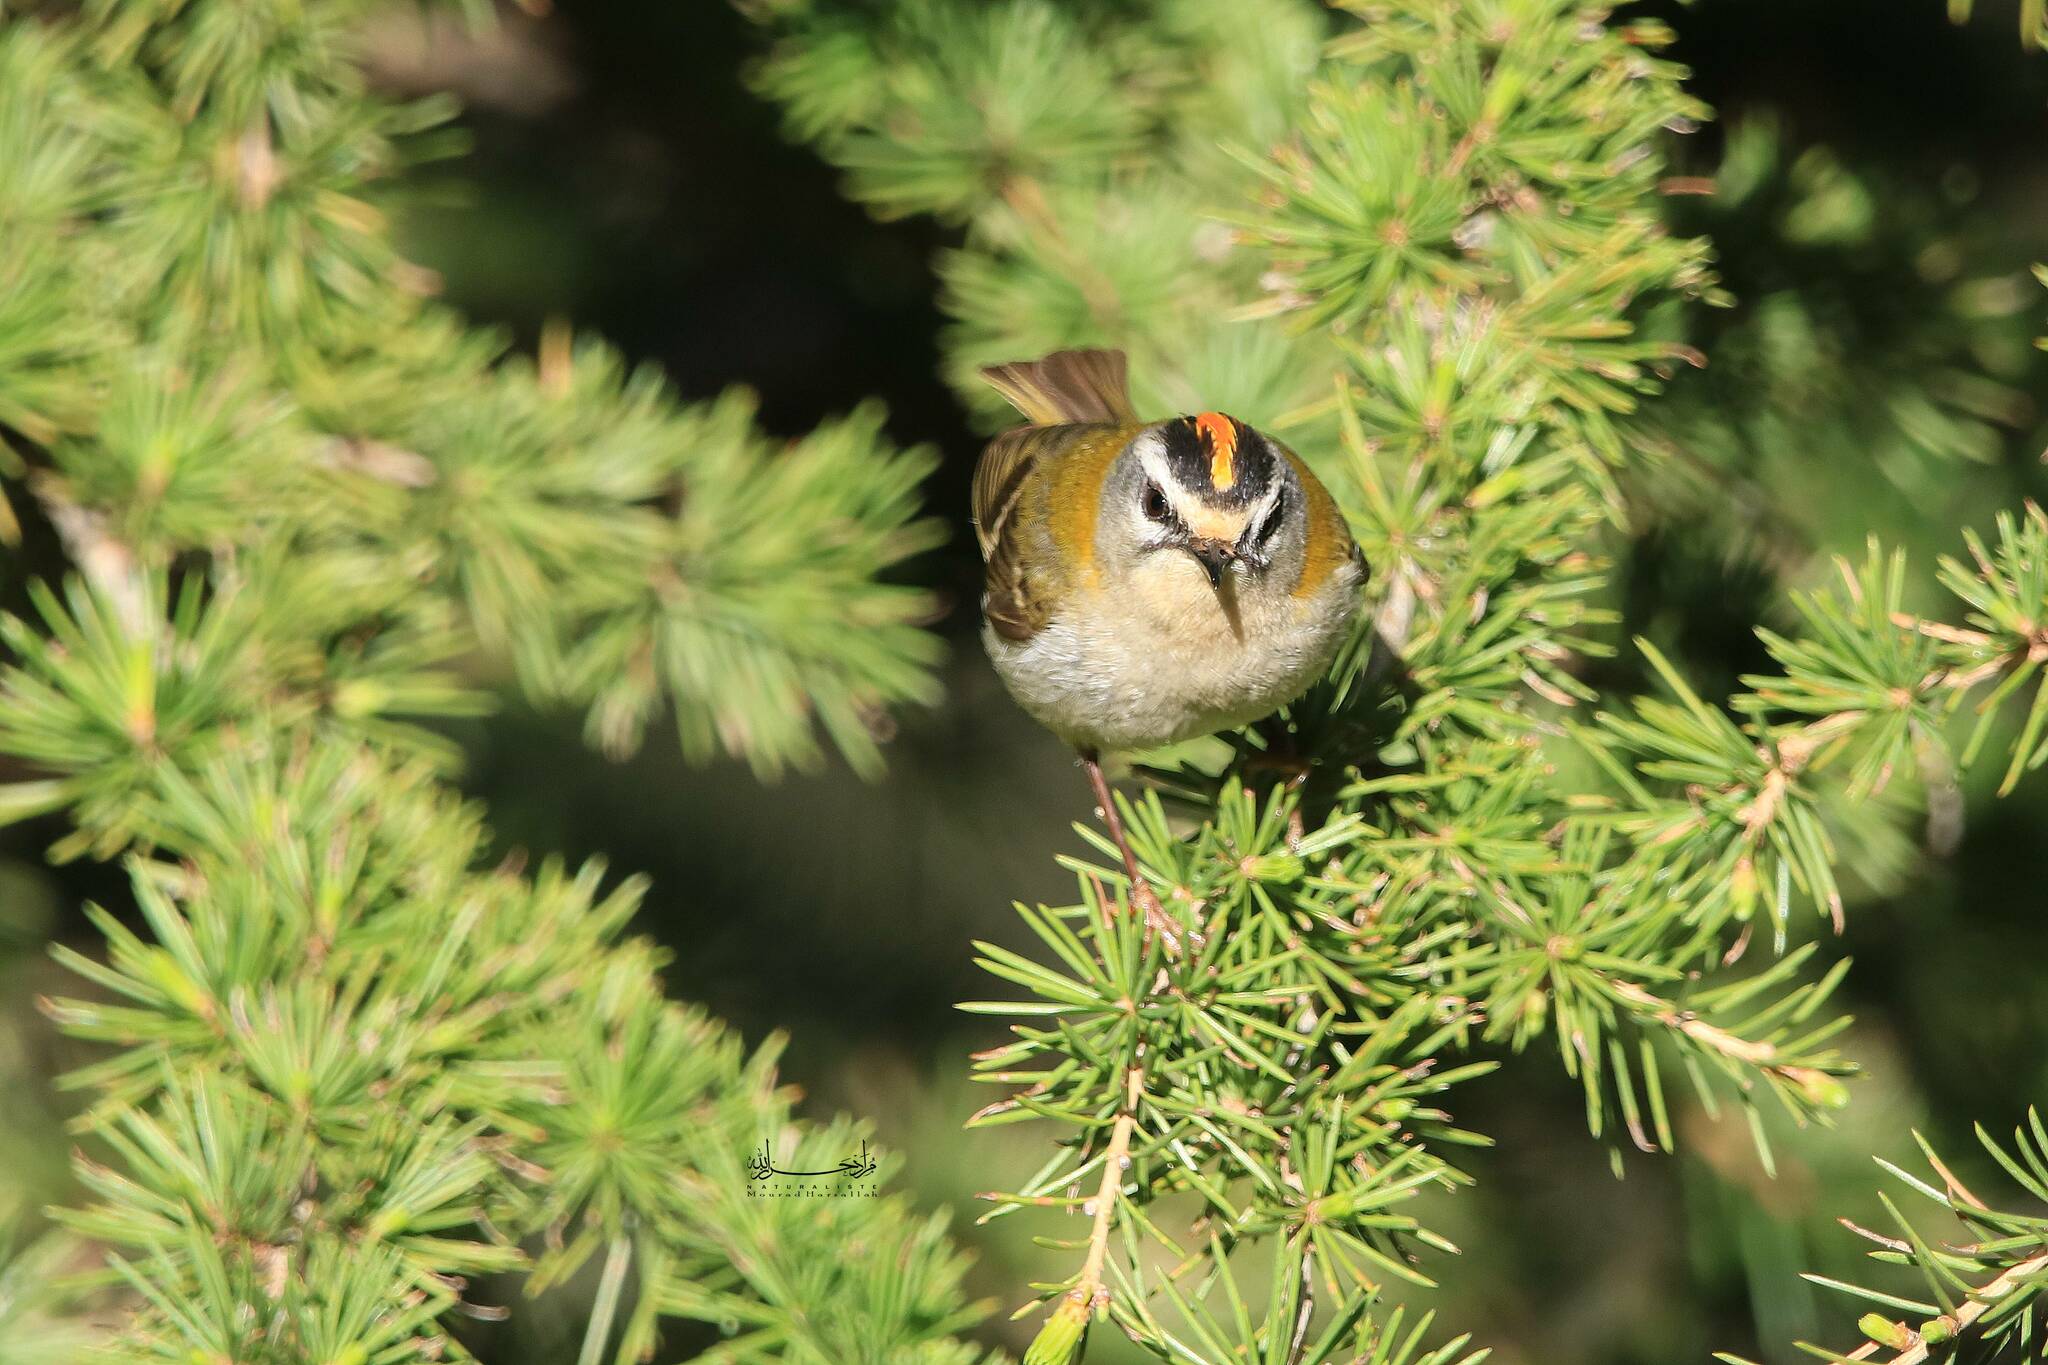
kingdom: Animalia
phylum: Chordata
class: Aves
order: Passeriformes
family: Regulidae
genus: Regulus
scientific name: Regulus ignicapilla
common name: Firecrest
